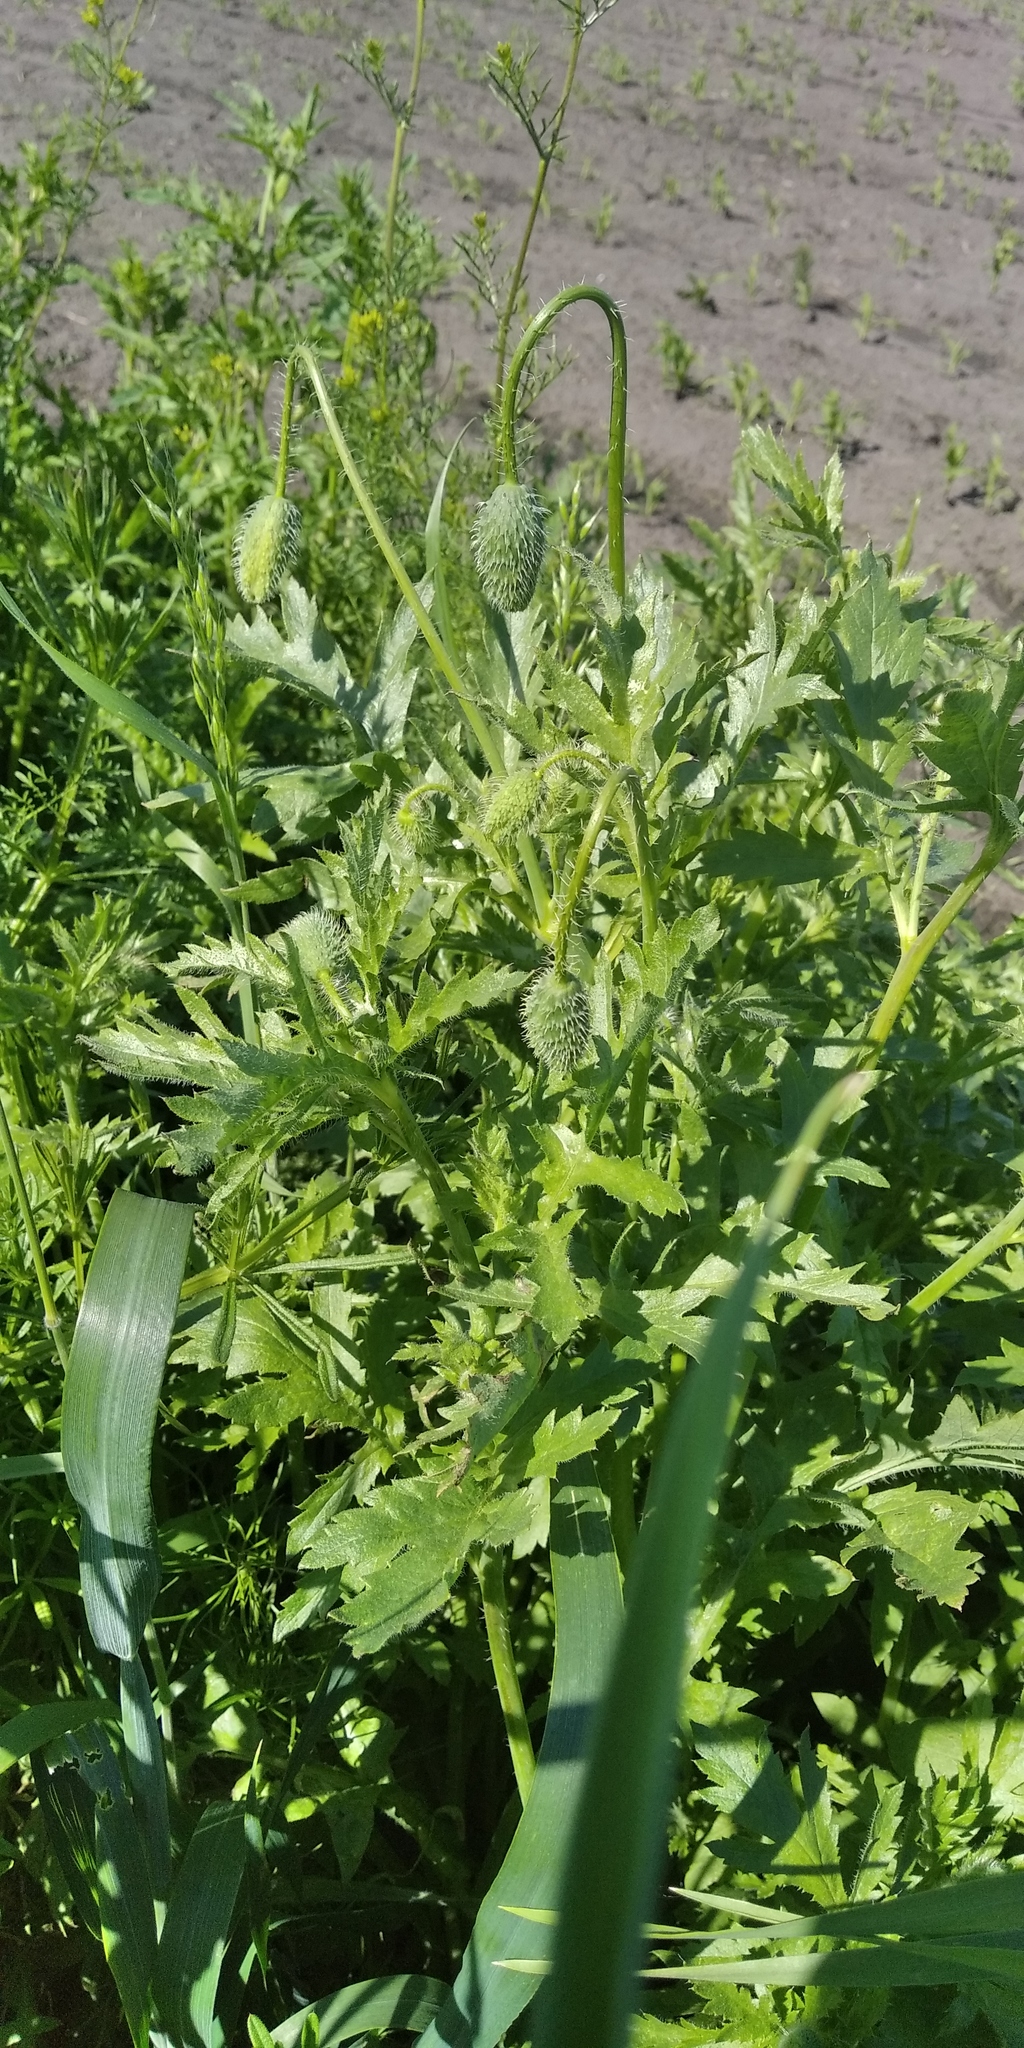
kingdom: Plantae
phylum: Tracheophyta
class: Magnoliopsida
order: Ranunculales
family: Papaveraceae
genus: Papaver
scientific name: Papaver rhoeas
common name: Corn poppy
